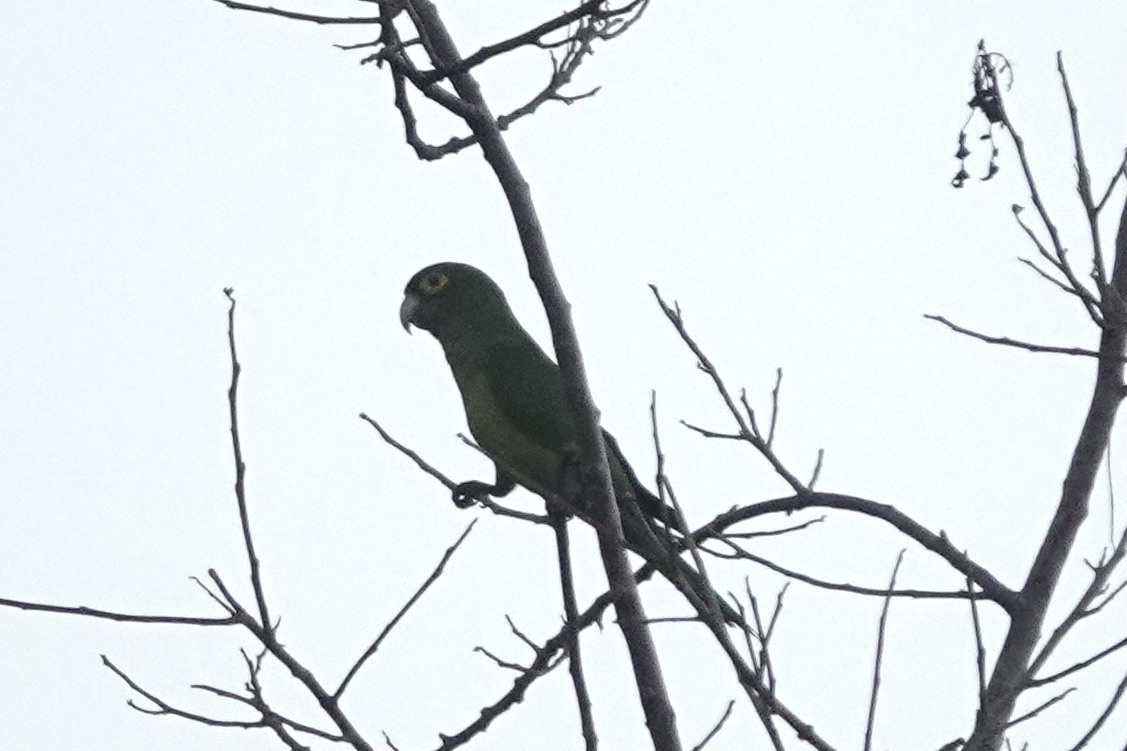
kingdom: Animalia
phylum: Chordata
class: Aves
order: Psittaciformes
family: Psittacidae
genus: Aratinga
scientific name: Aratinga canicularis
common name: Orange-fronted parakeet
